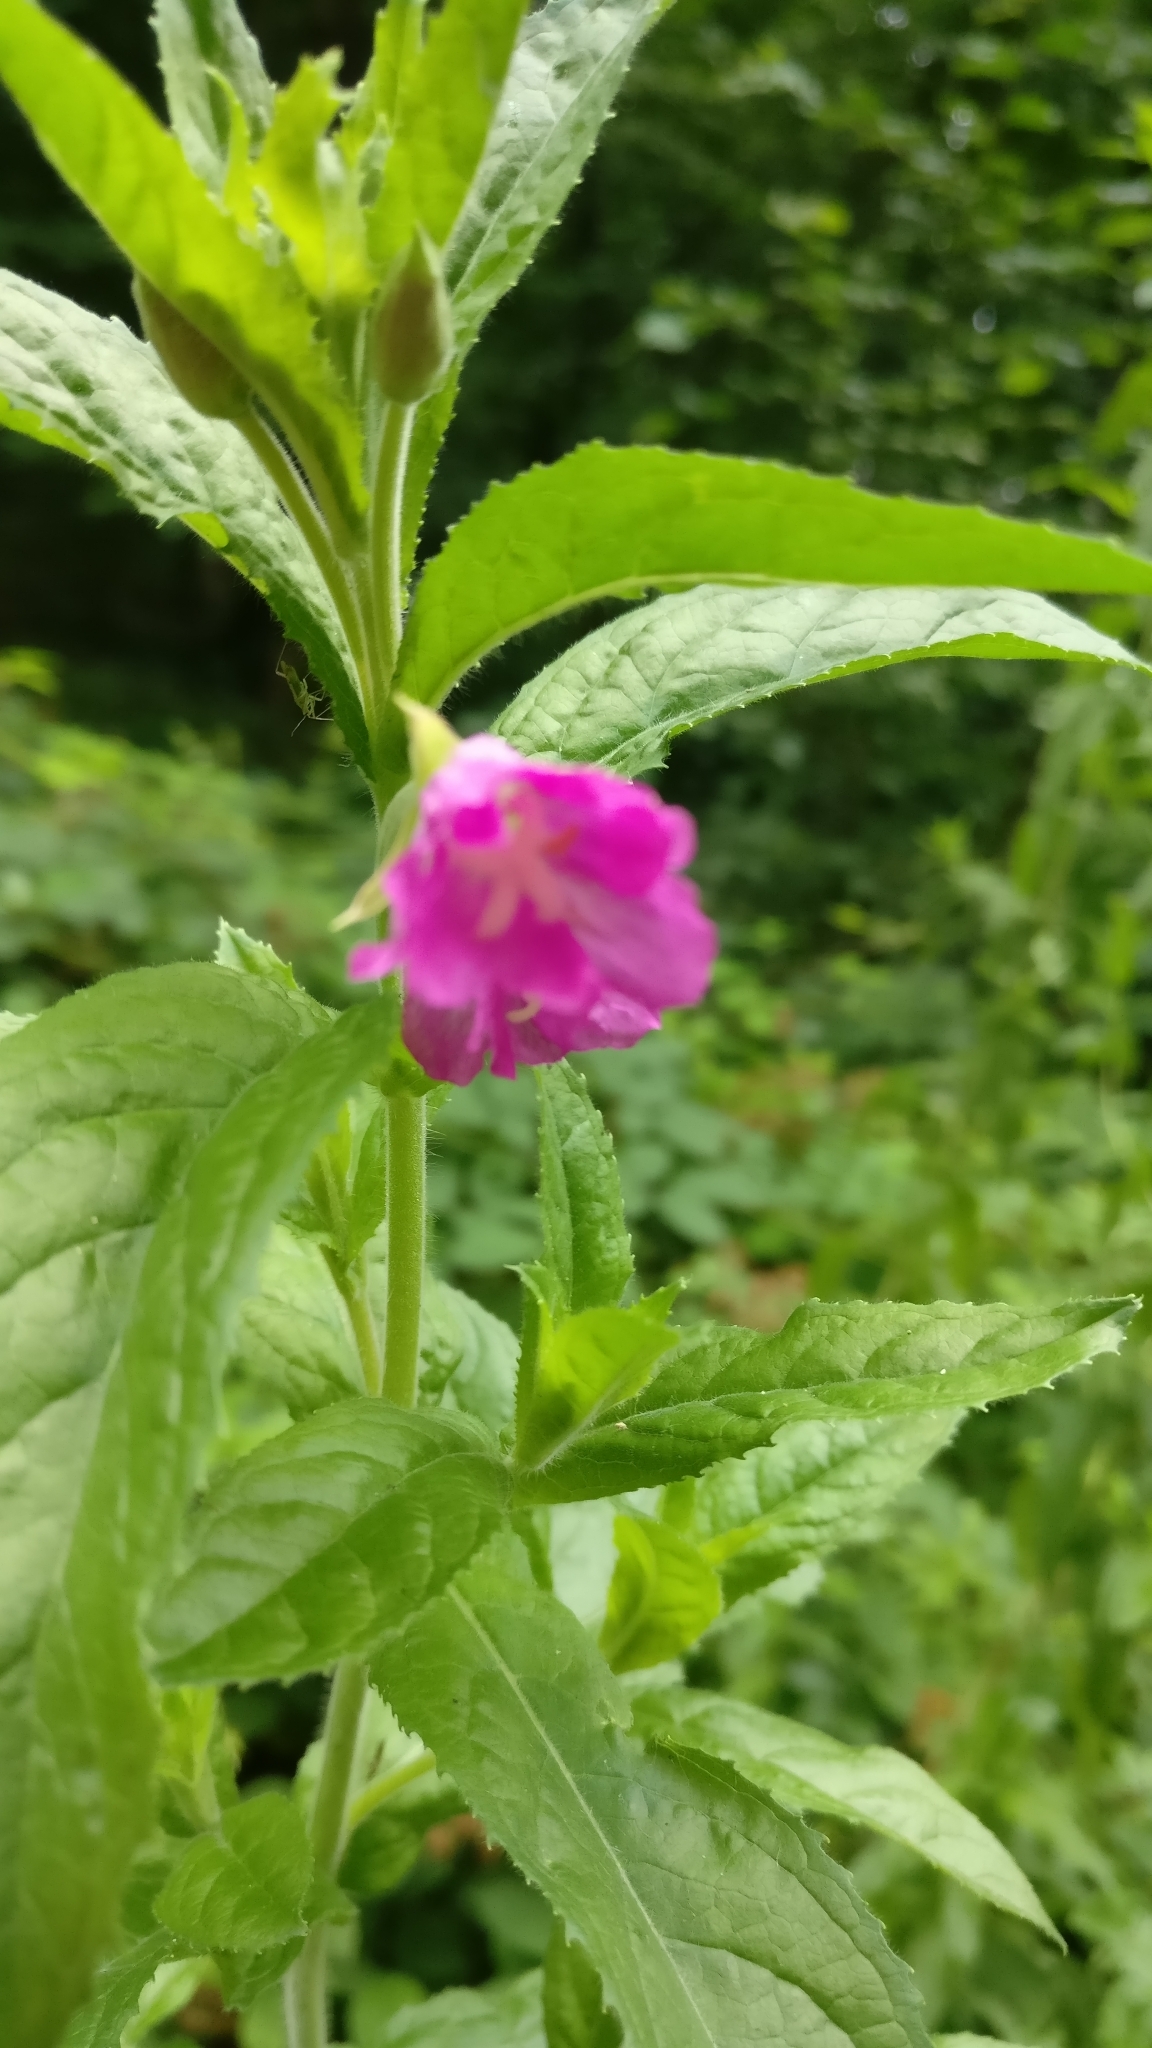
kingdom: Plantae
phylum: Tracheophyta
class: Magnoliopsida
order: Myrtales
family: Onagraceae
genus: Epilobium
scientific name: Epilobium hirsutum
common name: Great willowherb
